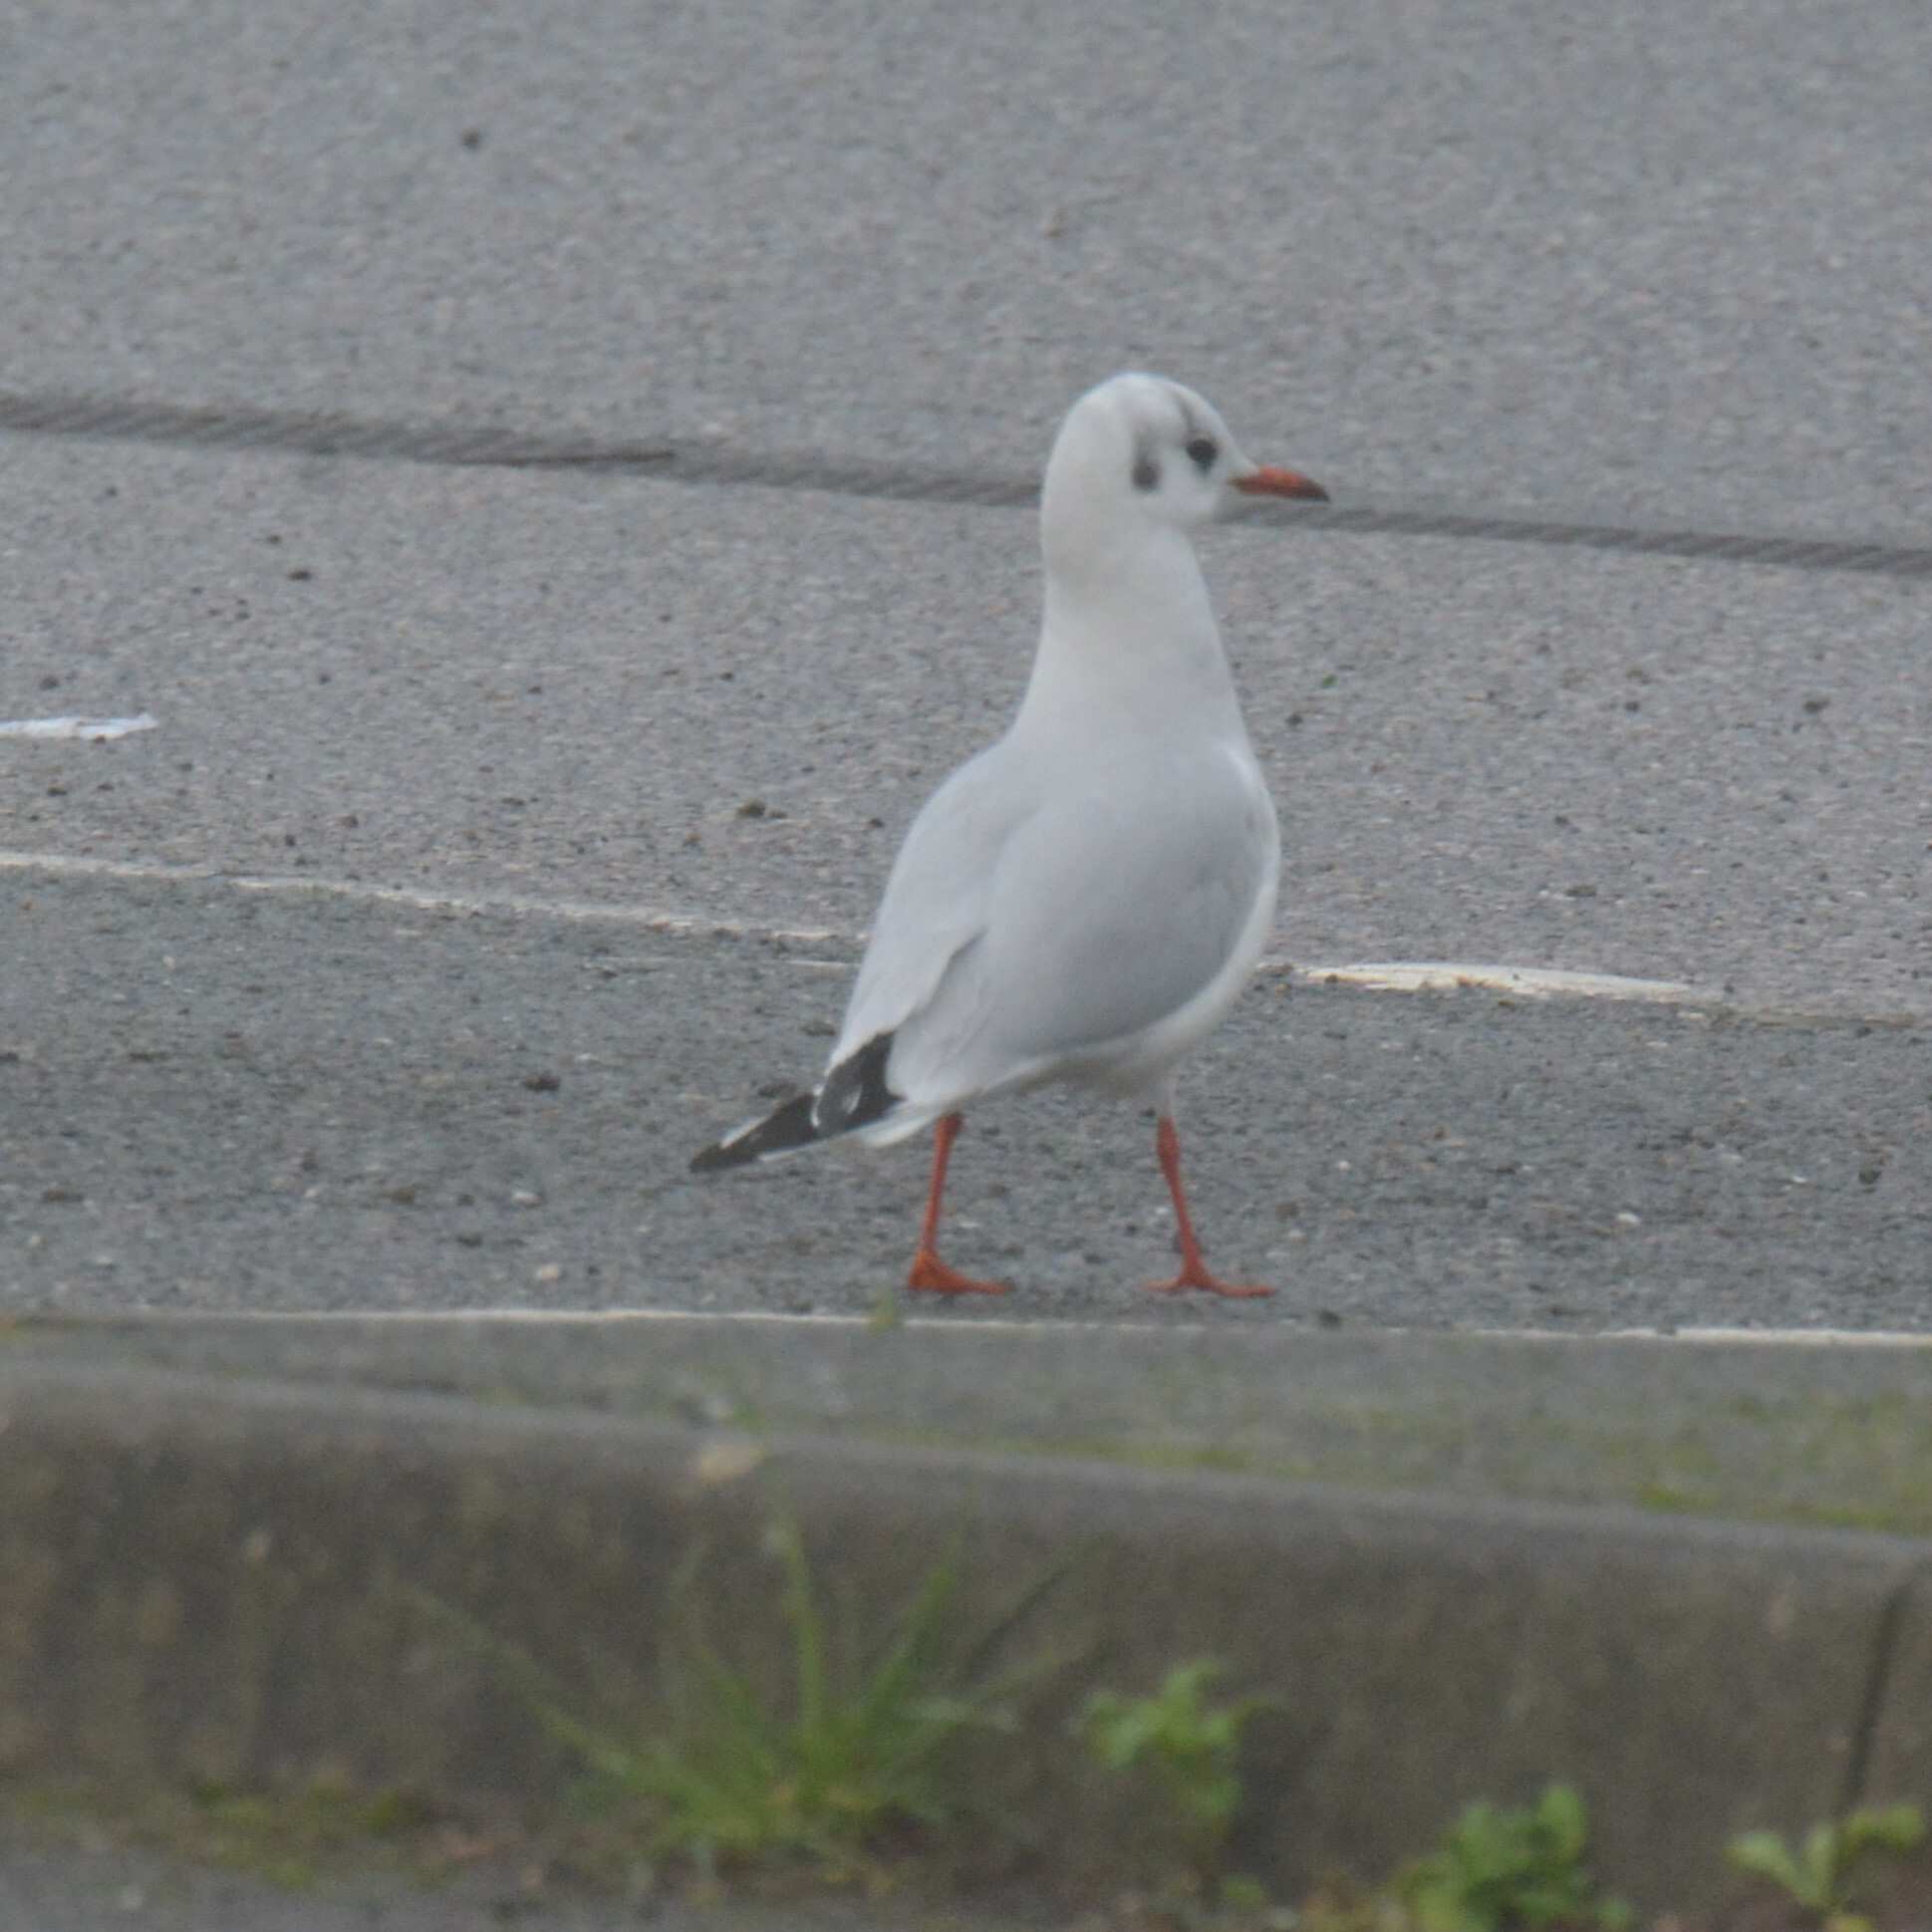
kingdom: Animalia
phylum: Chordata
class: Aves
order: Charadriiformes
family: Laridae
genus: Chroicocephalus
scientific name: Chroicocephalus ridibundus
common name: Black-headed gull
